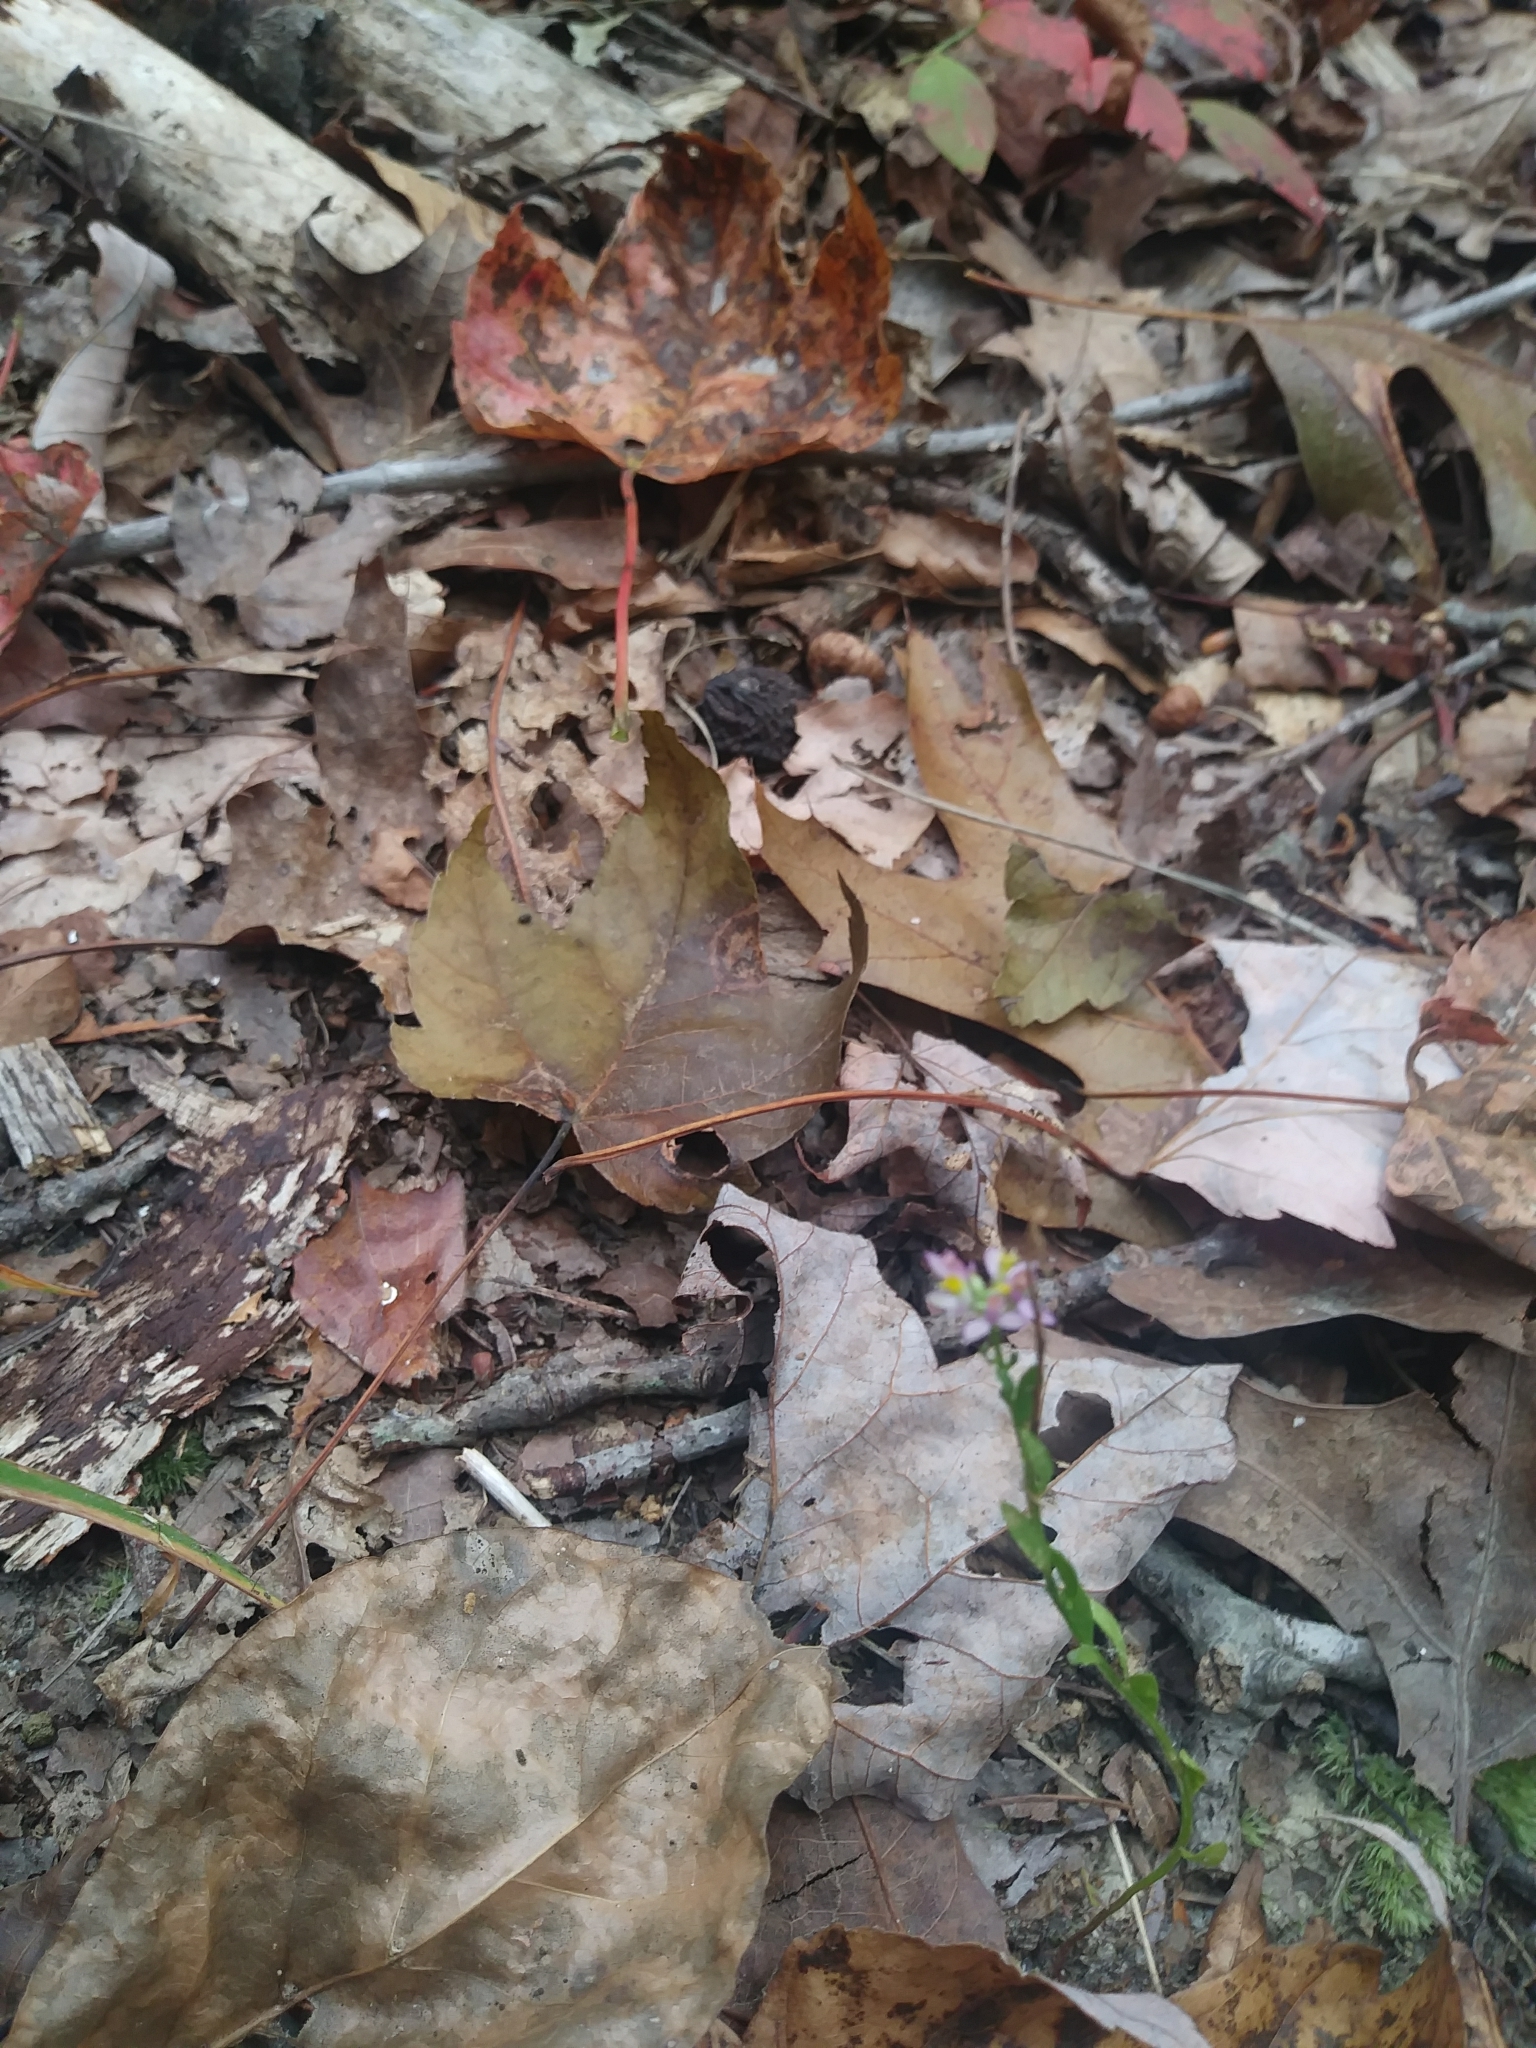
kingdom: Plantae
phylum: Tracheophyta
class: Magnoliopsida
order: Fabales
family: Polygalaceae
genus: Polygala
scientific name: Polygala mariana
